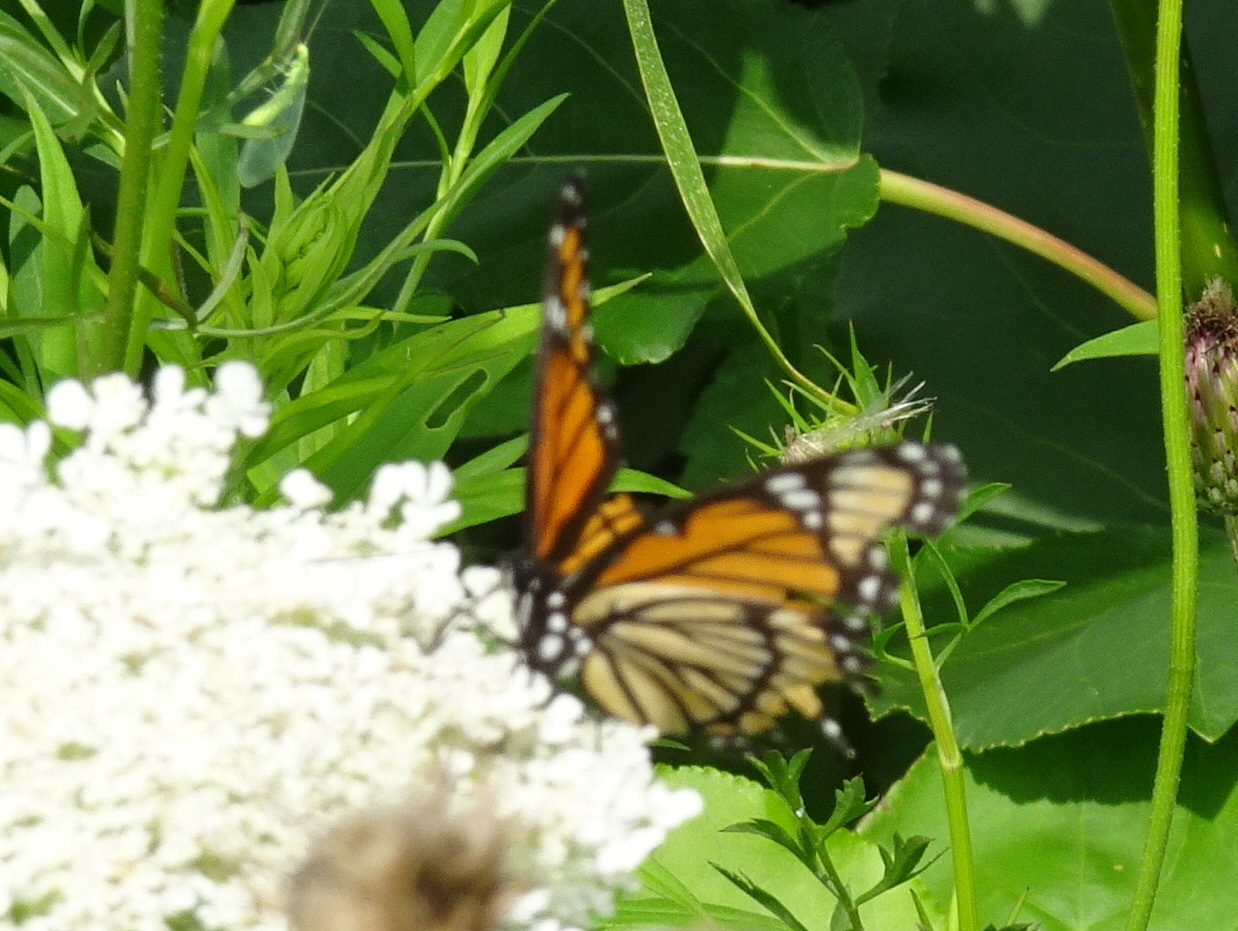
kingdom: Animalia
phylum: Arthropoda
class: Insecta
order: Lepidoptera
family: Nymphalidae
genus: Limenitis
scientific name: Limenitis archippus
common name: Viceroy
